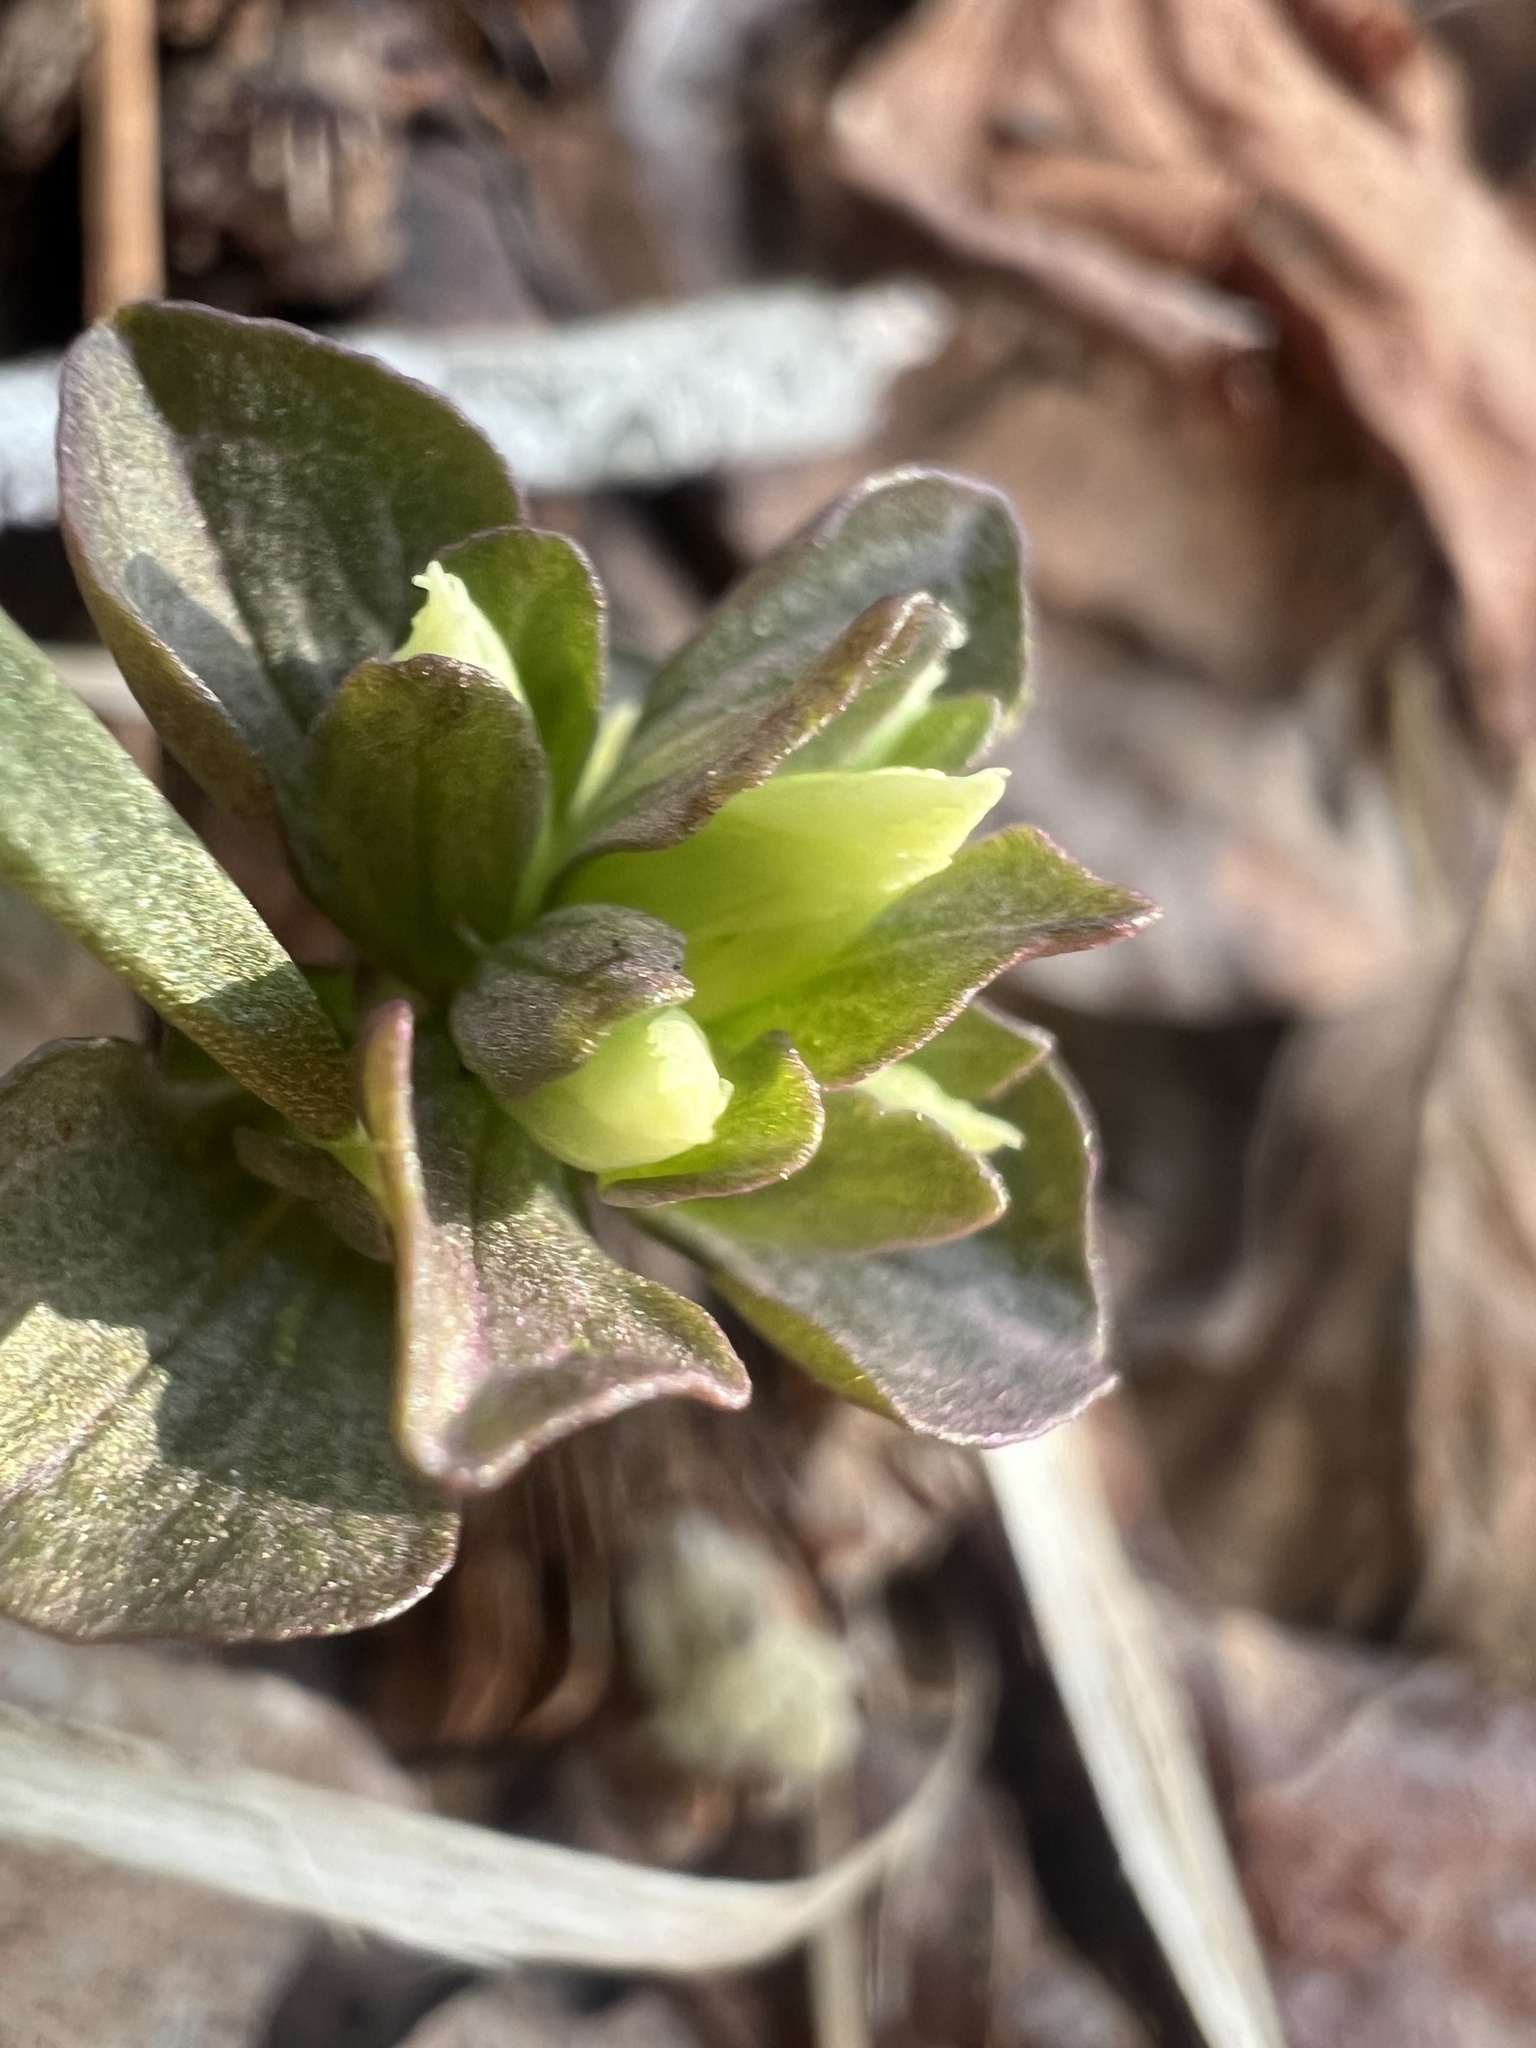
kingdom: Plantae
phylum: Tracheophyta
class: Magnoliopsida
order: Gentianales
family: Gentianaceae
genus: Obolaria
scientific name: Obolaria virginica
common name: Pennywort
